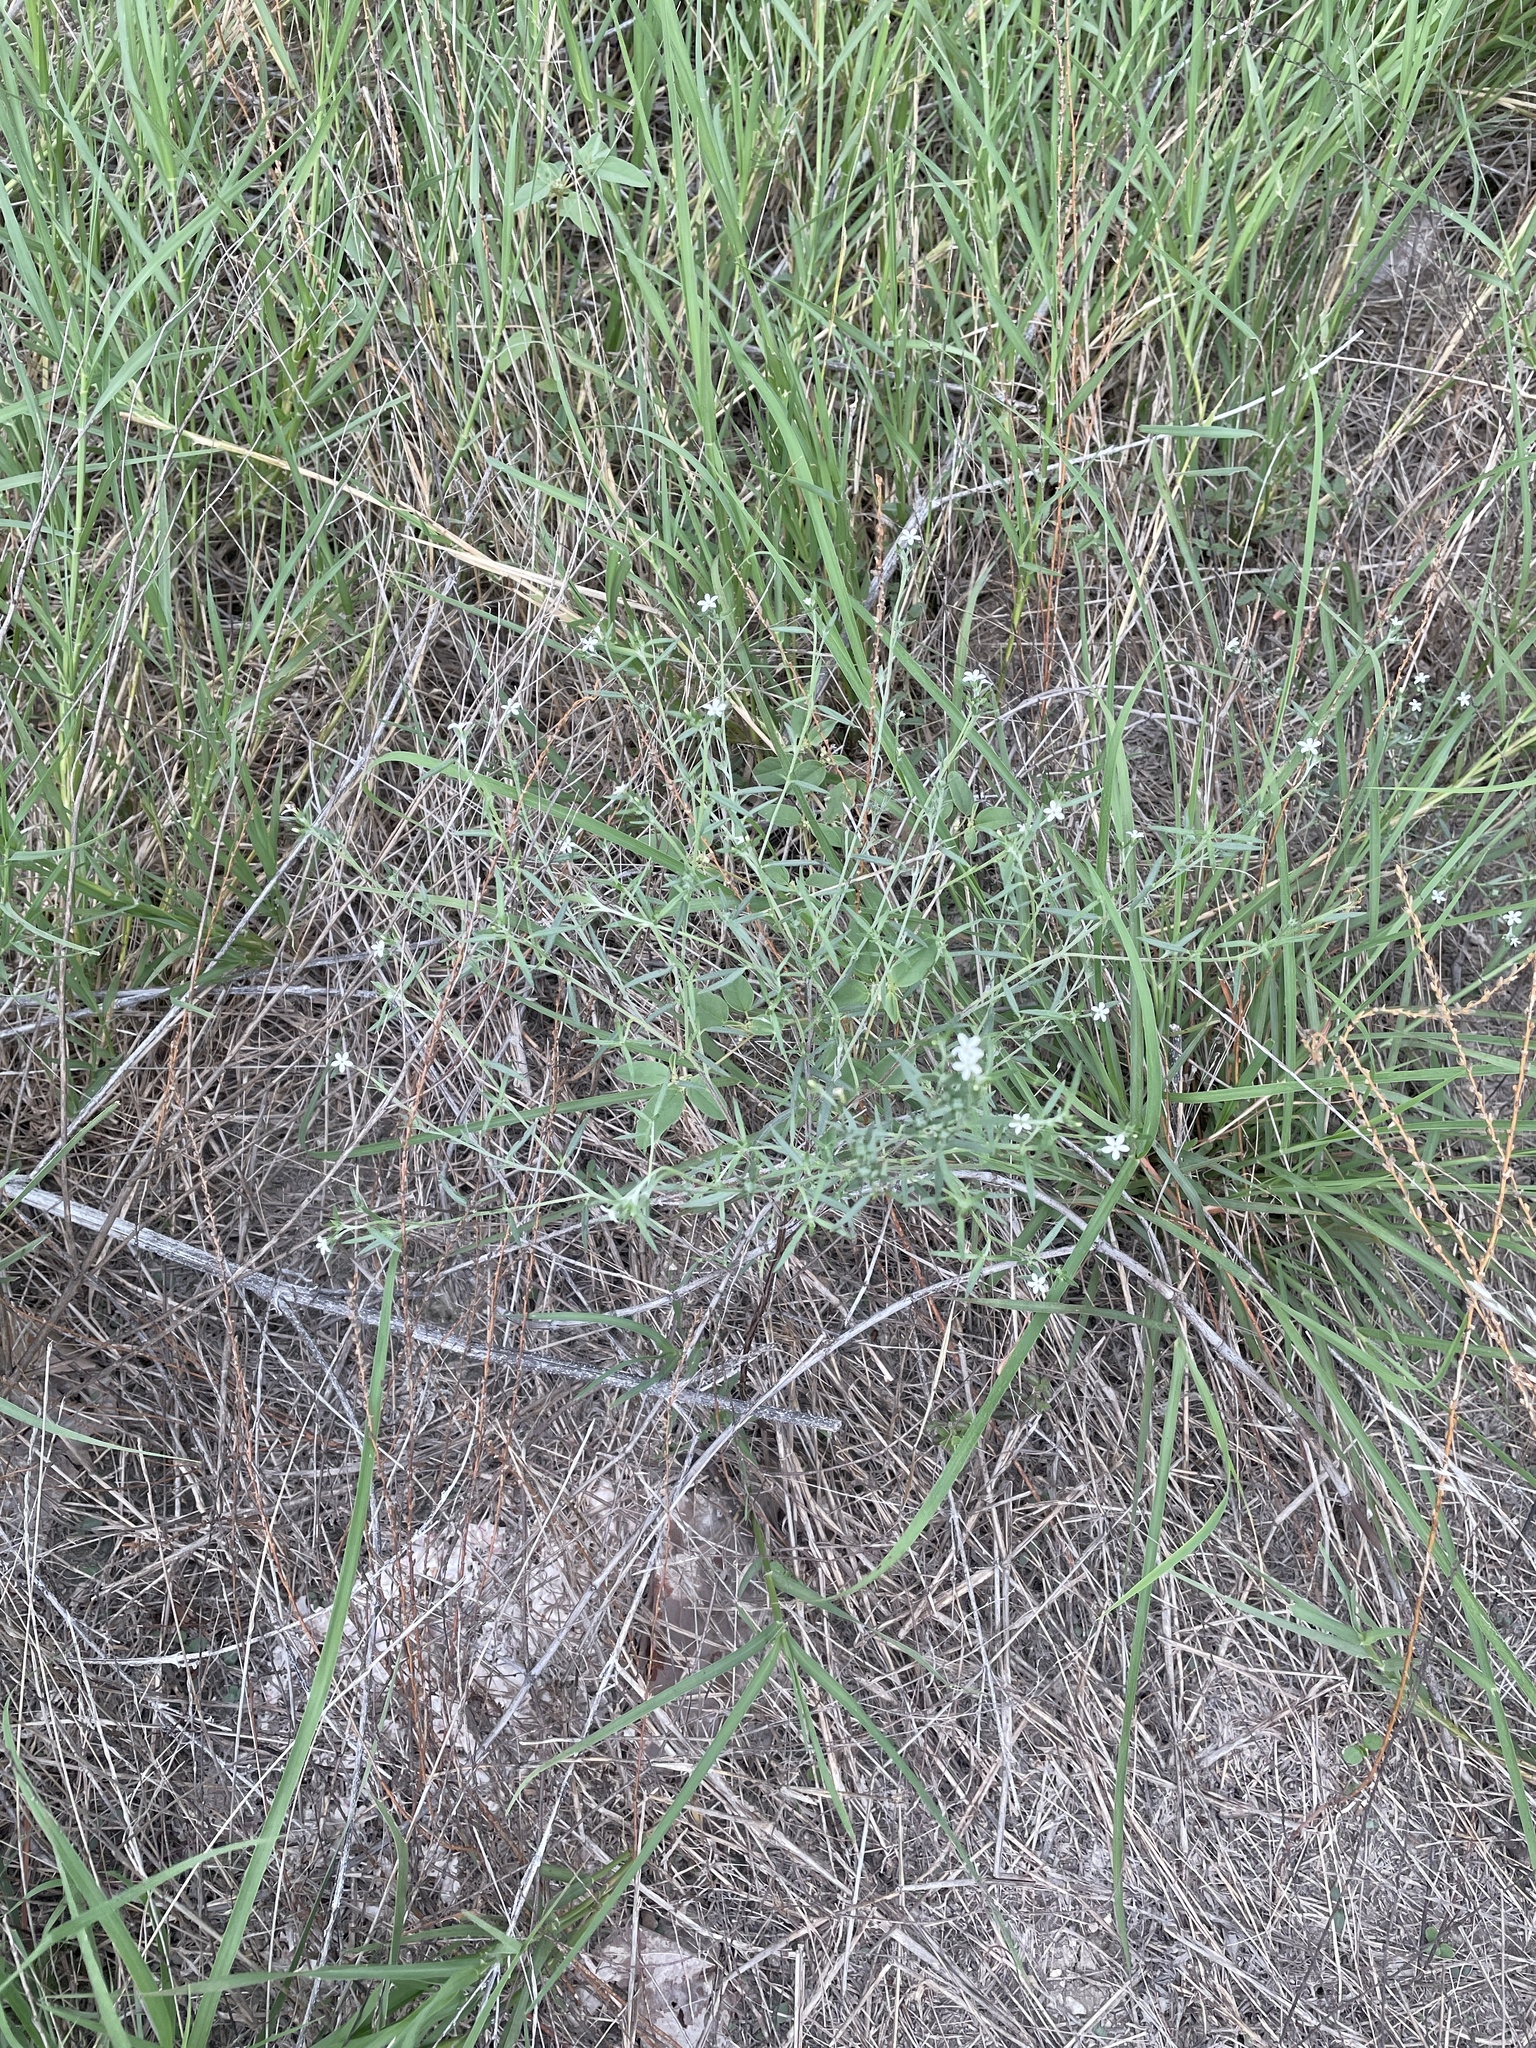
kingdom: Plantae
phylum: Tracheophyta
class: Magnoliopsida
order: Boraginales
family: Heliotropiaceae
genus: Euploca
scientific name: Euploca tenella
